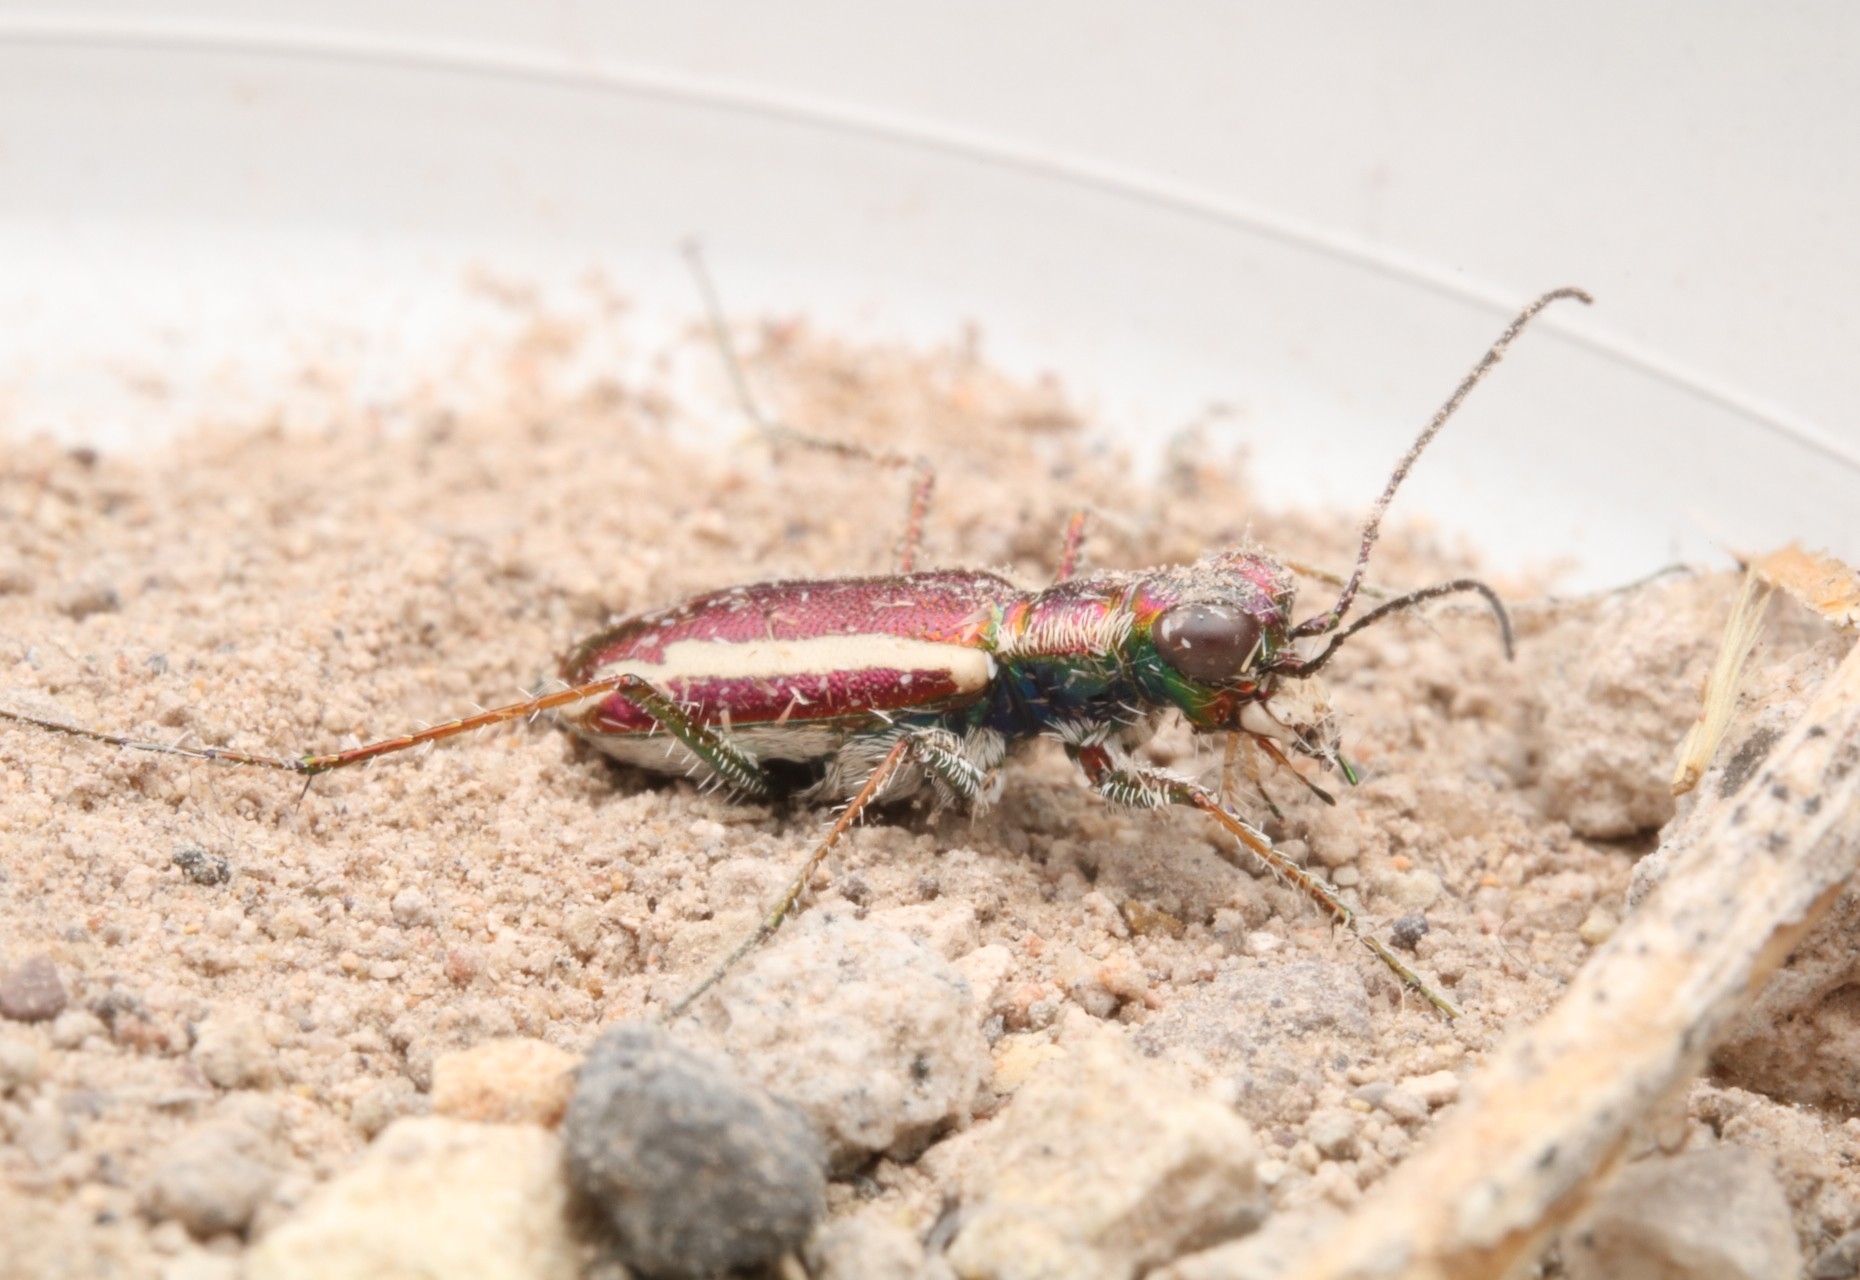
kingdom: Animalia
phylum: Arthropoda
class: Insecta
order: Coleoptera
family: Carabidae
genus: Cylindera
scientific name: Cylindera lemniscata
